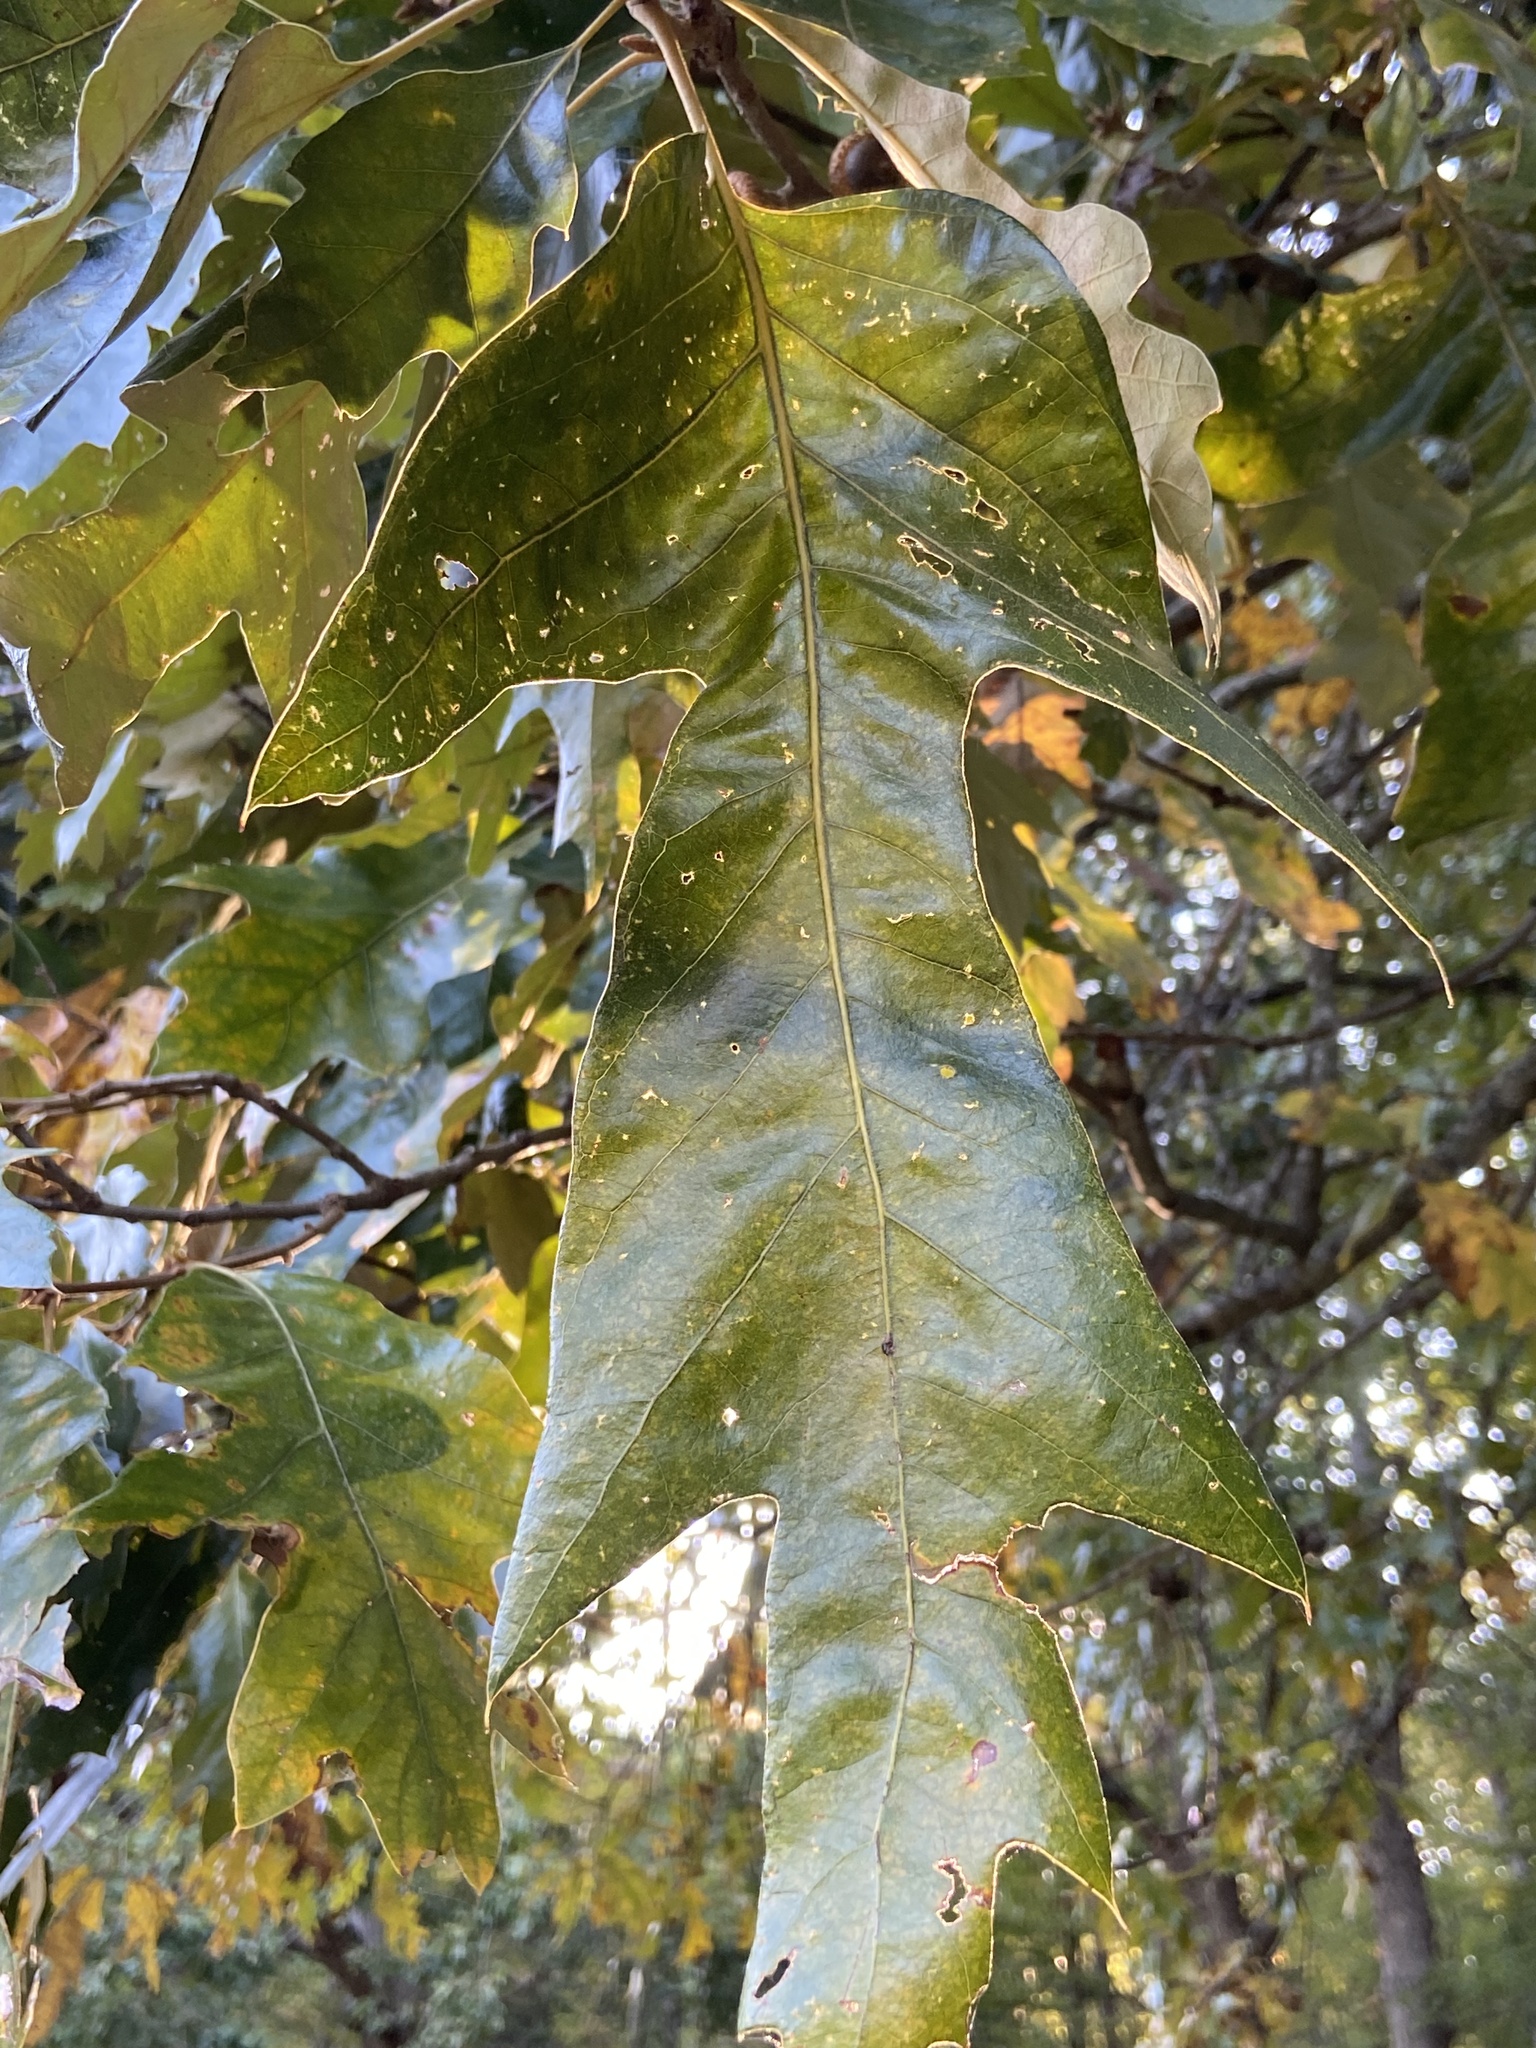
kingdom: Plantae
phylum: Tracheophyta
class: Magnoliopsida
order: Fagales
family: Fagaceae
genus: Quercus
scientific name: Quercus falcata
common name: Southern red oak
